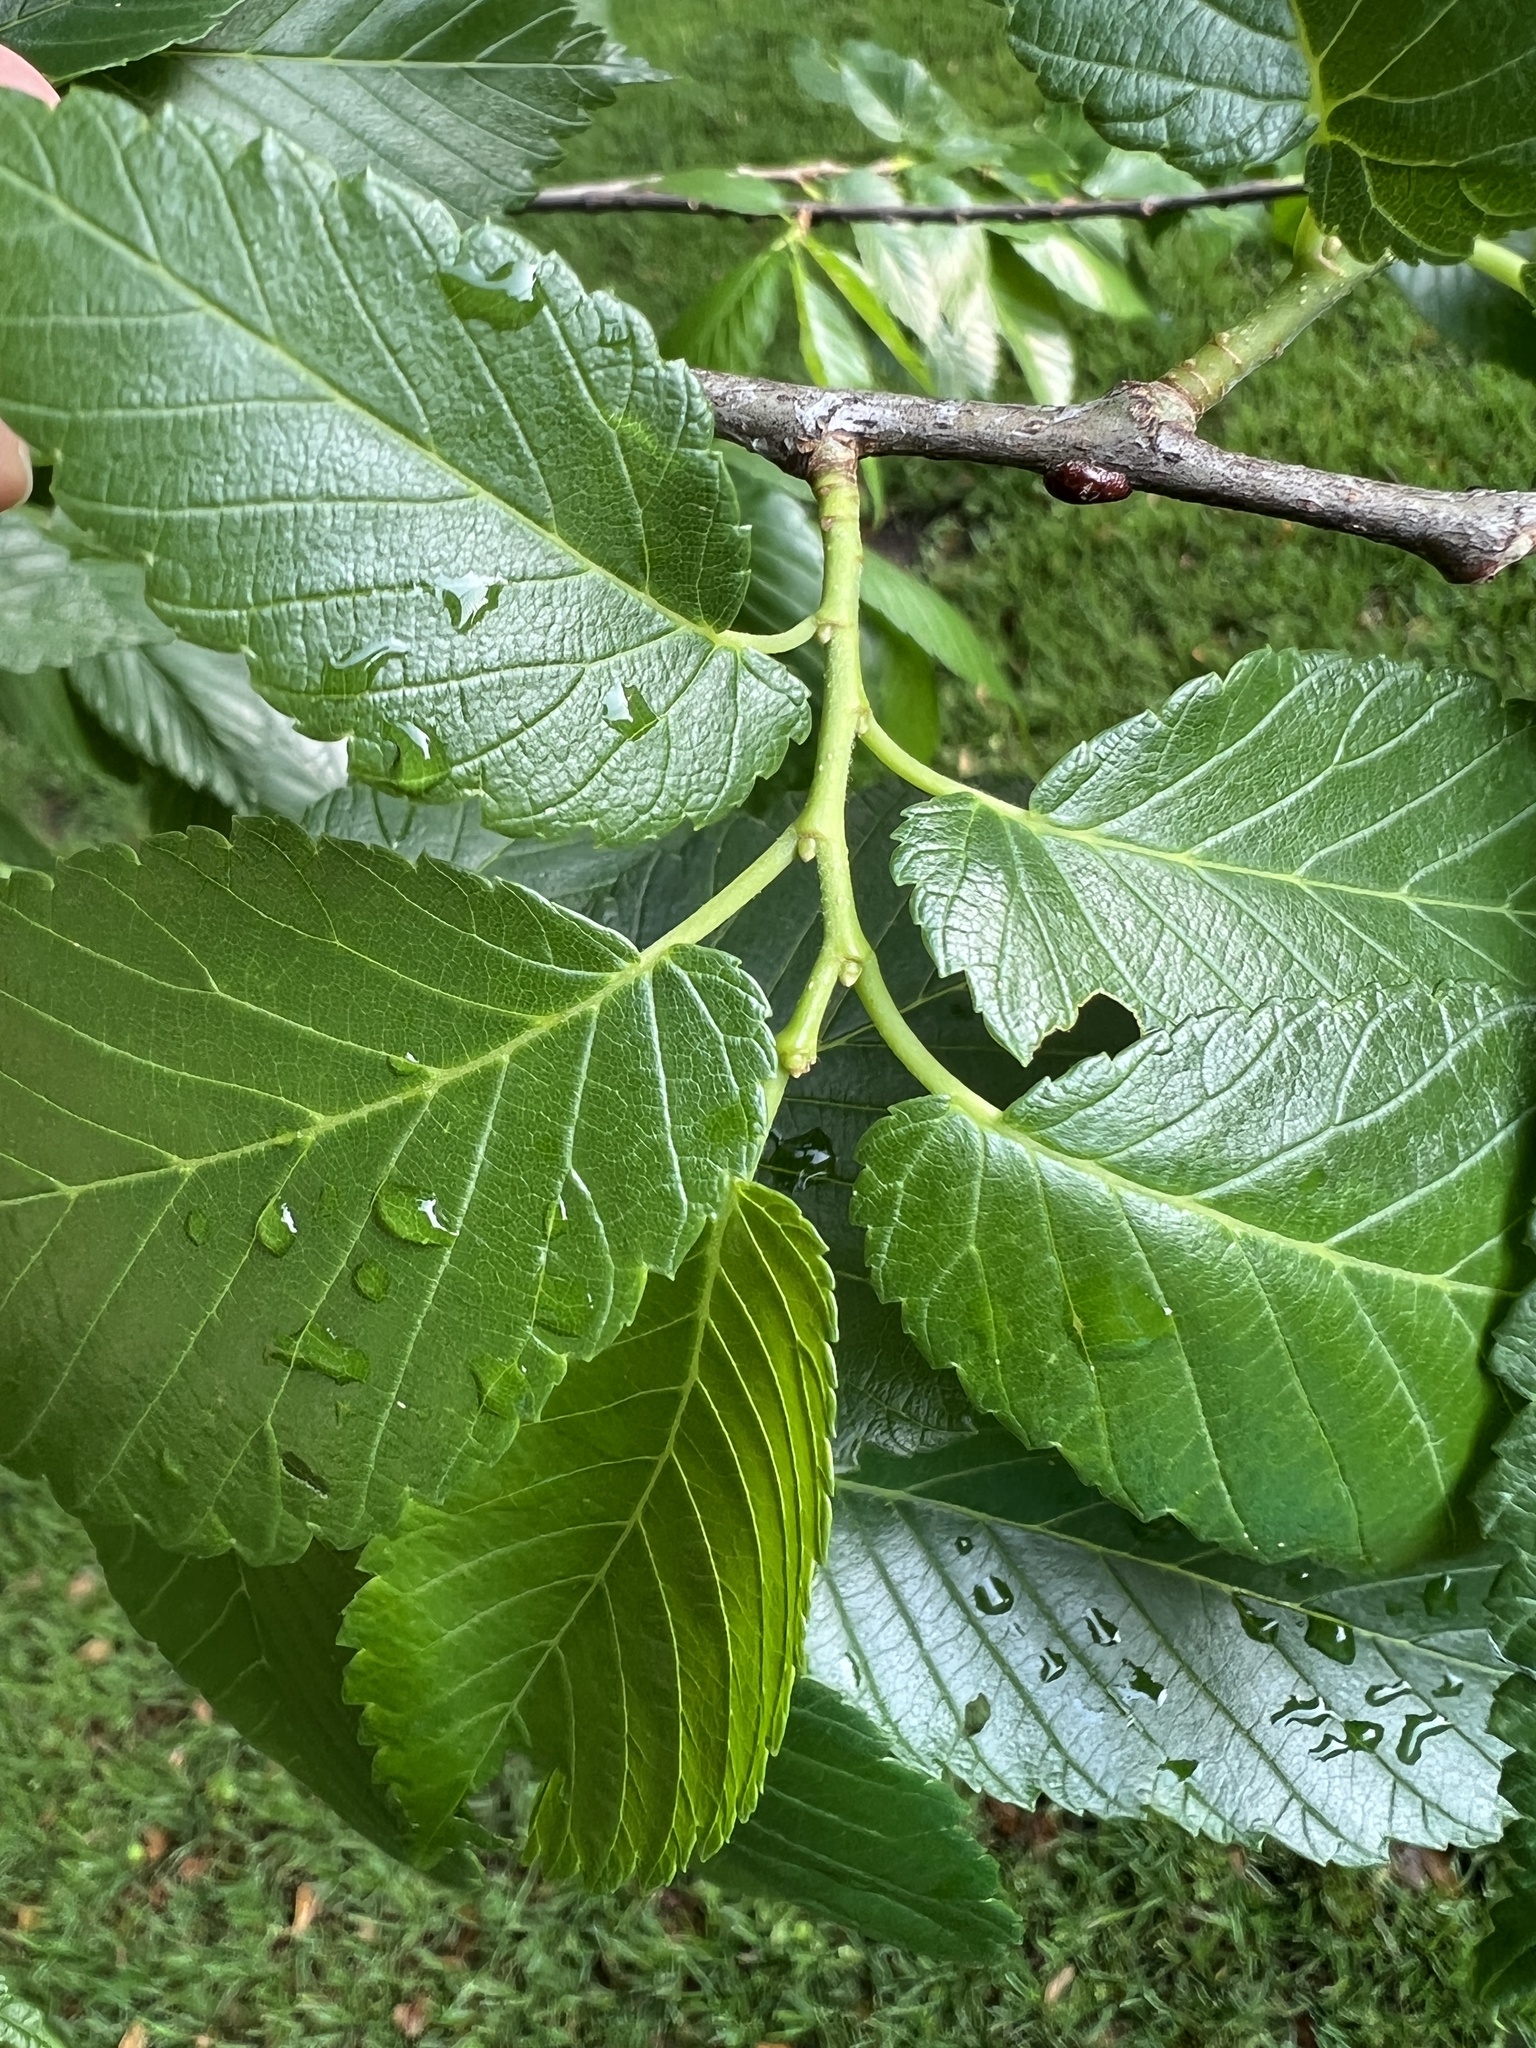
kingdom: Plantae
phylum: Tracheophyta
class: Magnoliopsida
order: Rosales
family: Ulmaceae
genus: Ulmus
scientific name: Ulmus americana
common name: American elm
